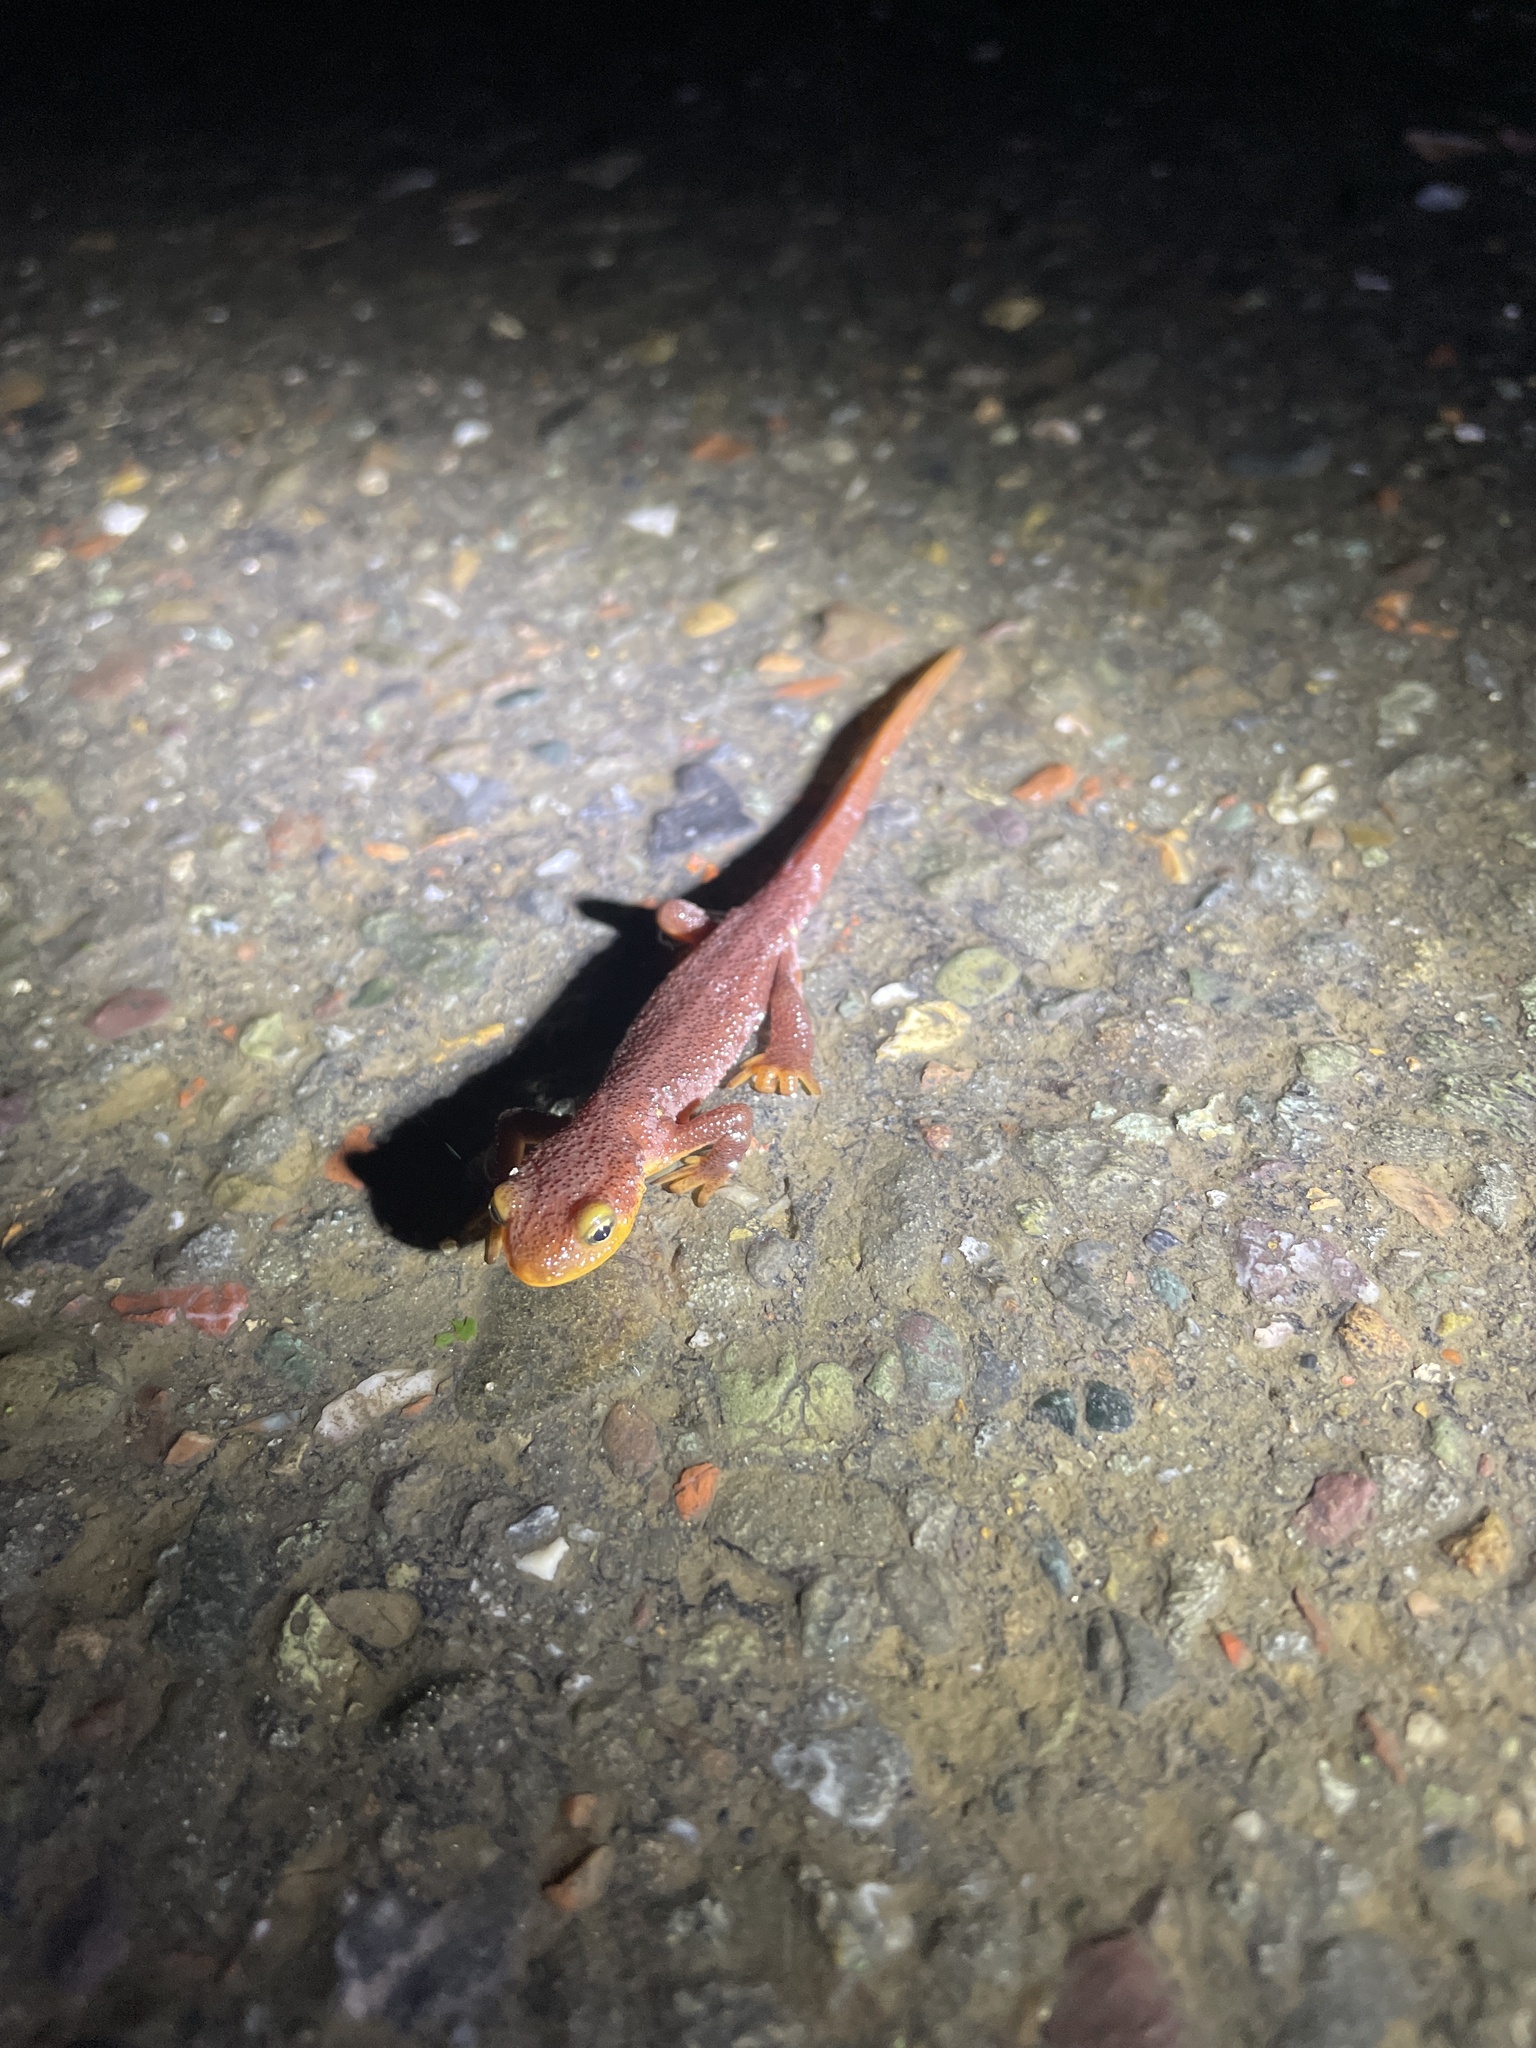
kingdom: Animalia
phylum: Chordata
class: Amphibia
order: Caudata
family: Salamandridae
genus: Taricha
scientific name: Taricha torosa
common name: California newt
